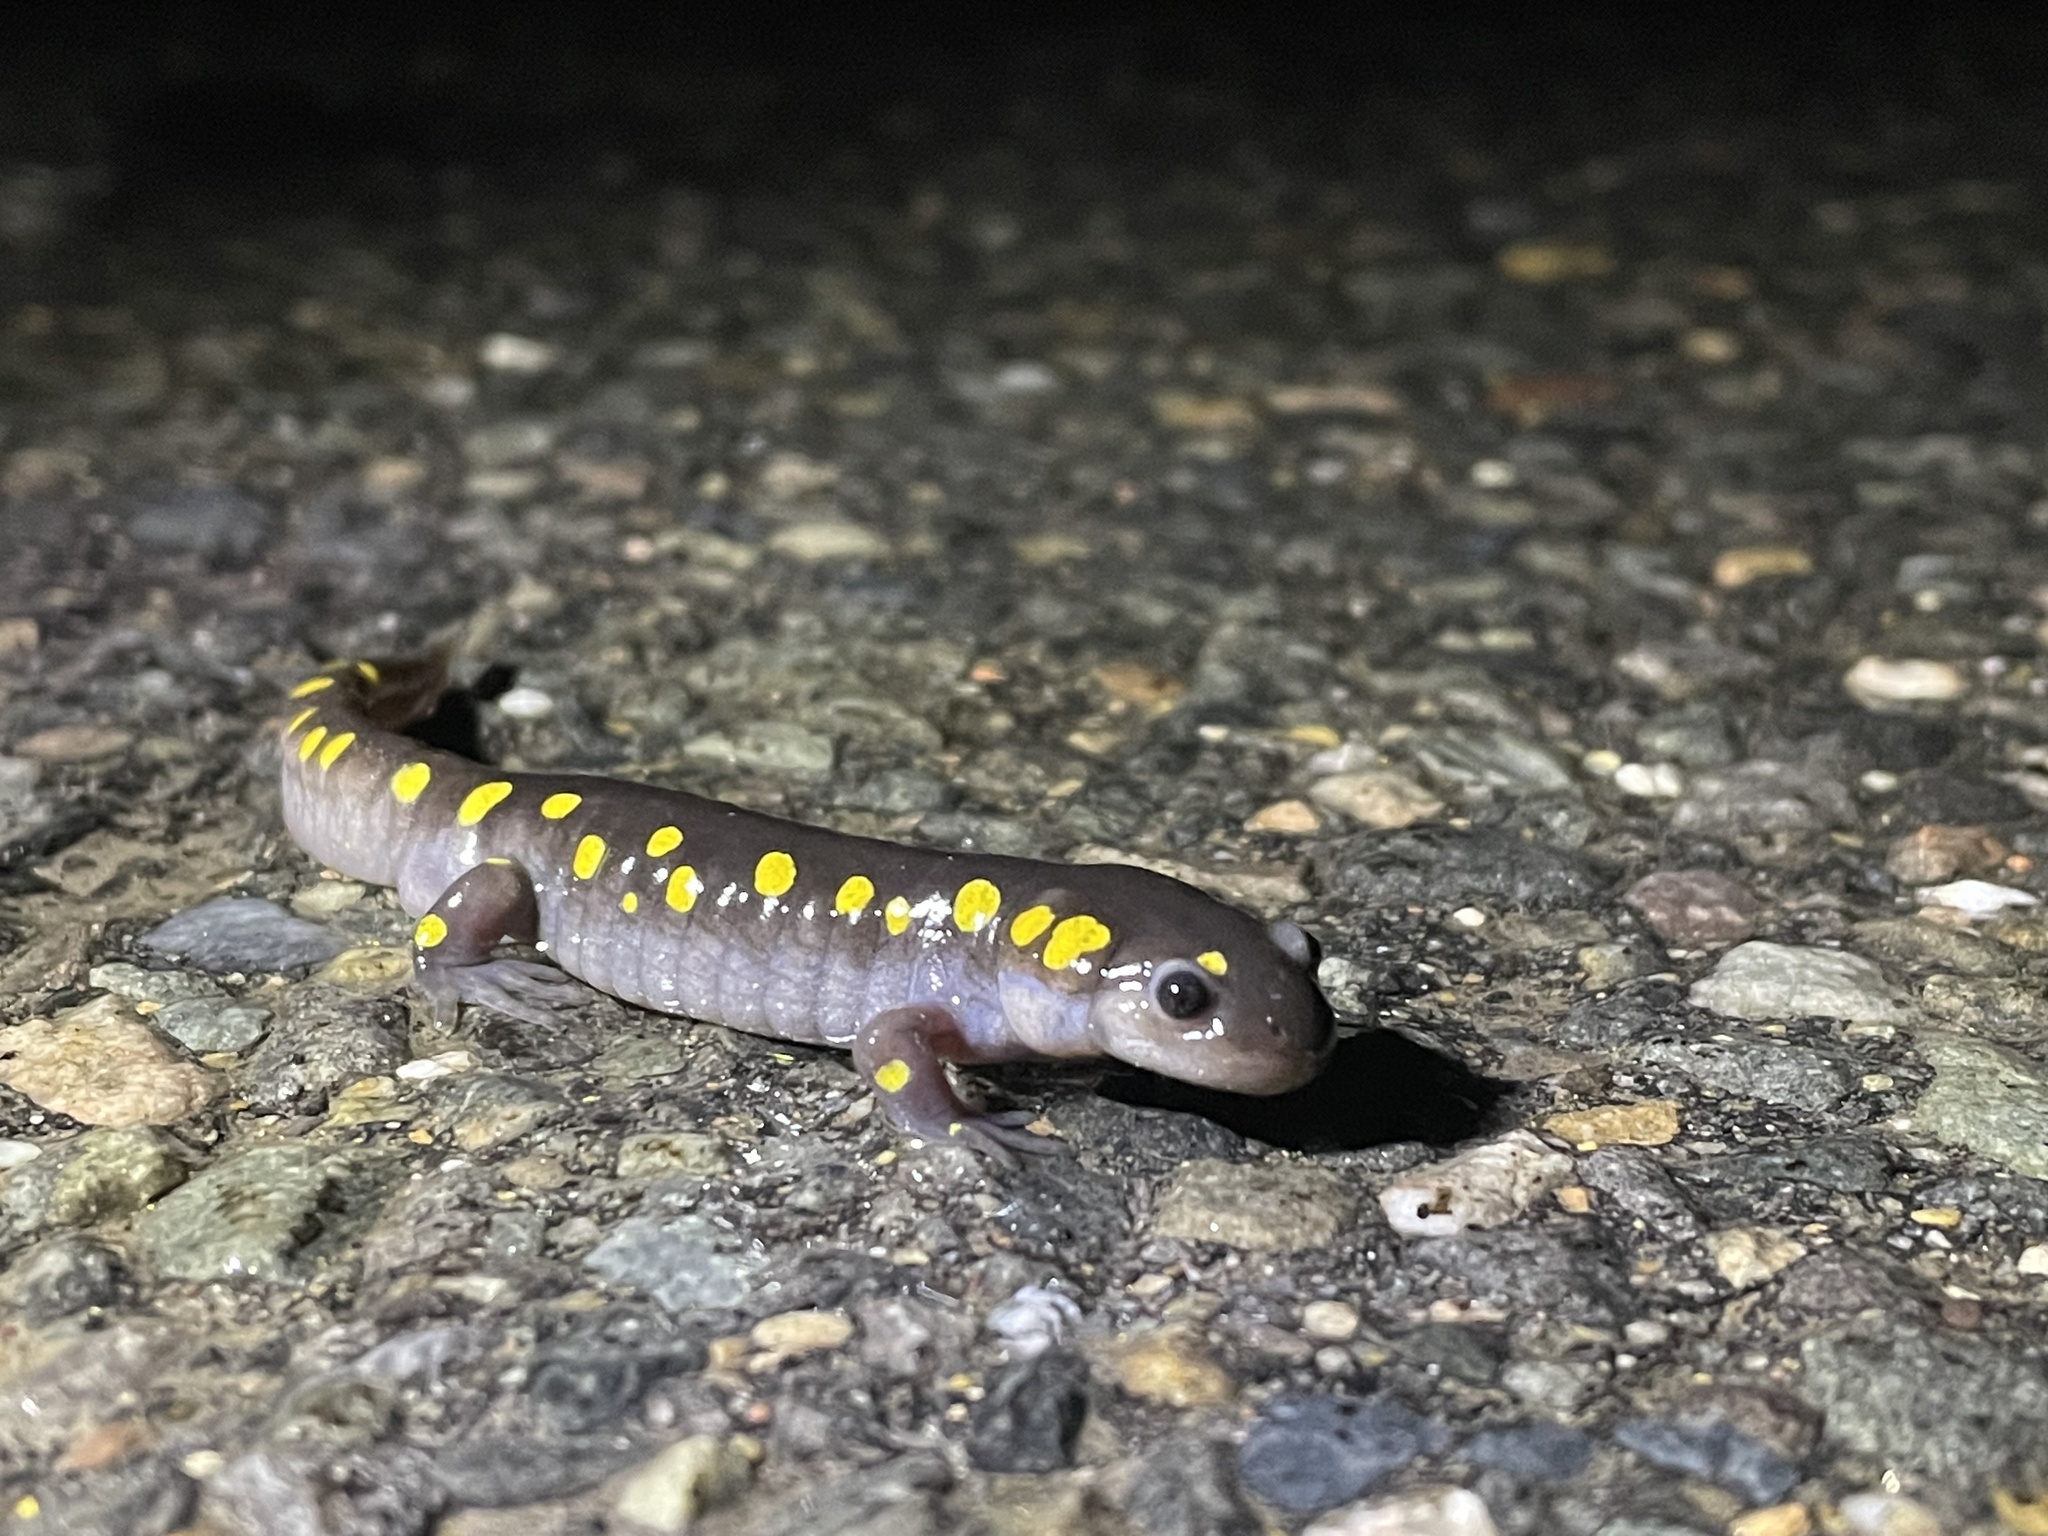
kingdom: Animalia
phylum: Chordata
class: Amphibia
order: Caudata
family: Ambystomatidae
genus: Ambystoma
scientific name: Ambystoma maculatum
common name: Spotted salamander
